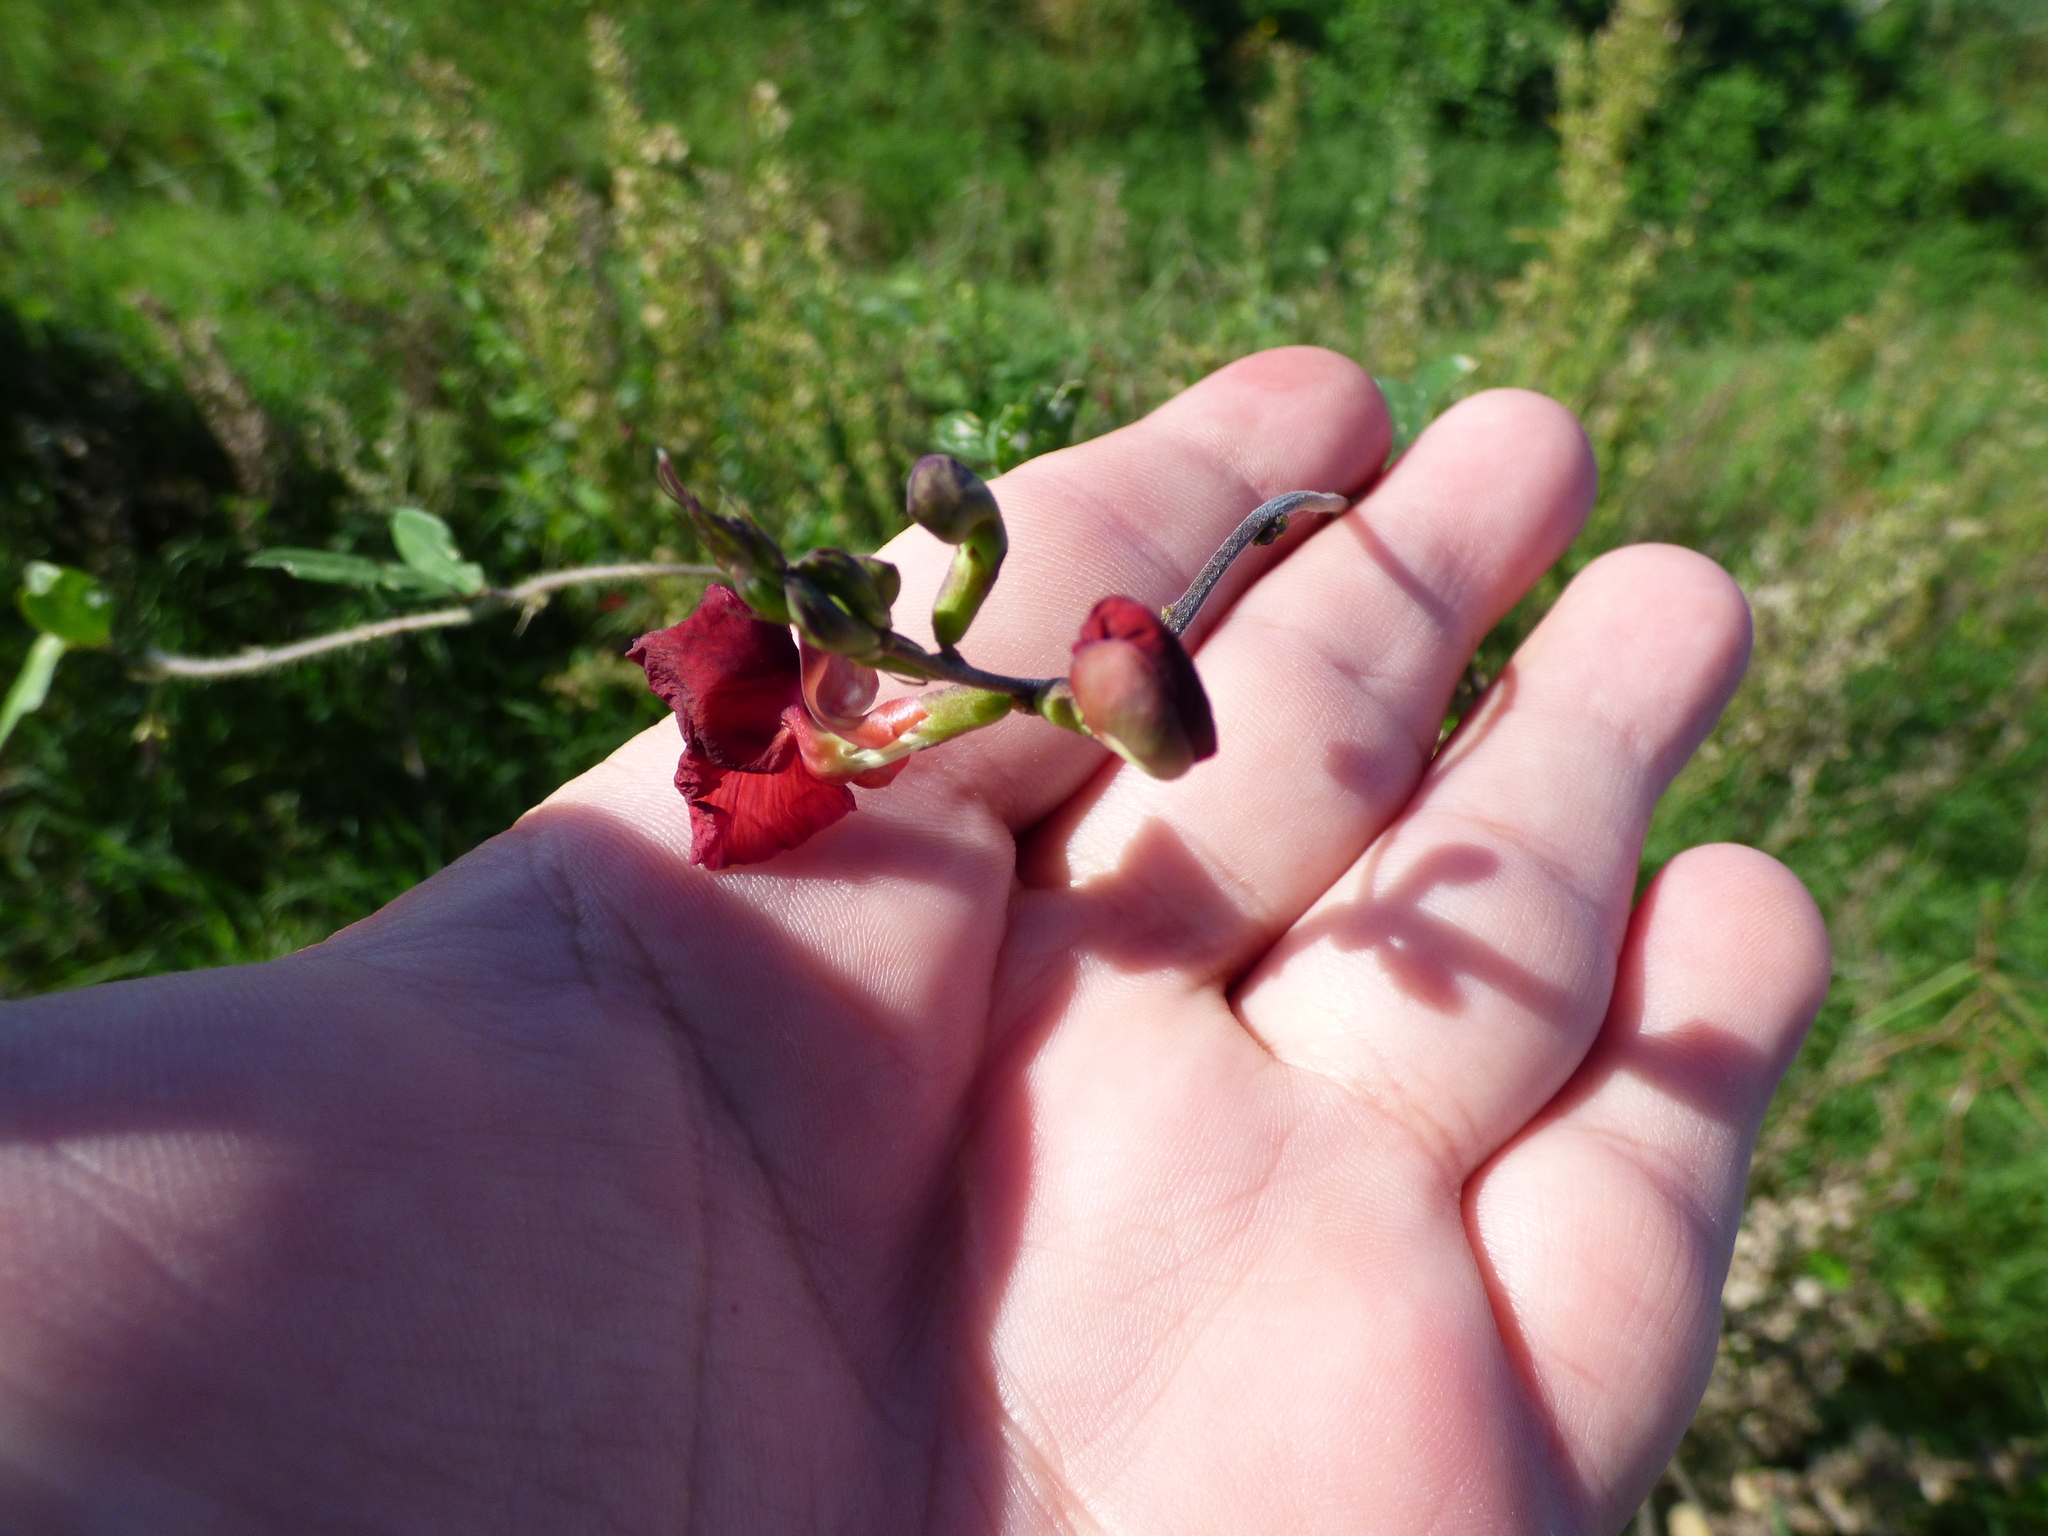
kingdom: Plantae
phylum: Tracheophyta
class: Magnoliopsida
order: Fabales
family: Fabaceae
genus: Macroptilium
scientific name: Macroptilium lathyroides
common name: Wild bushbean
